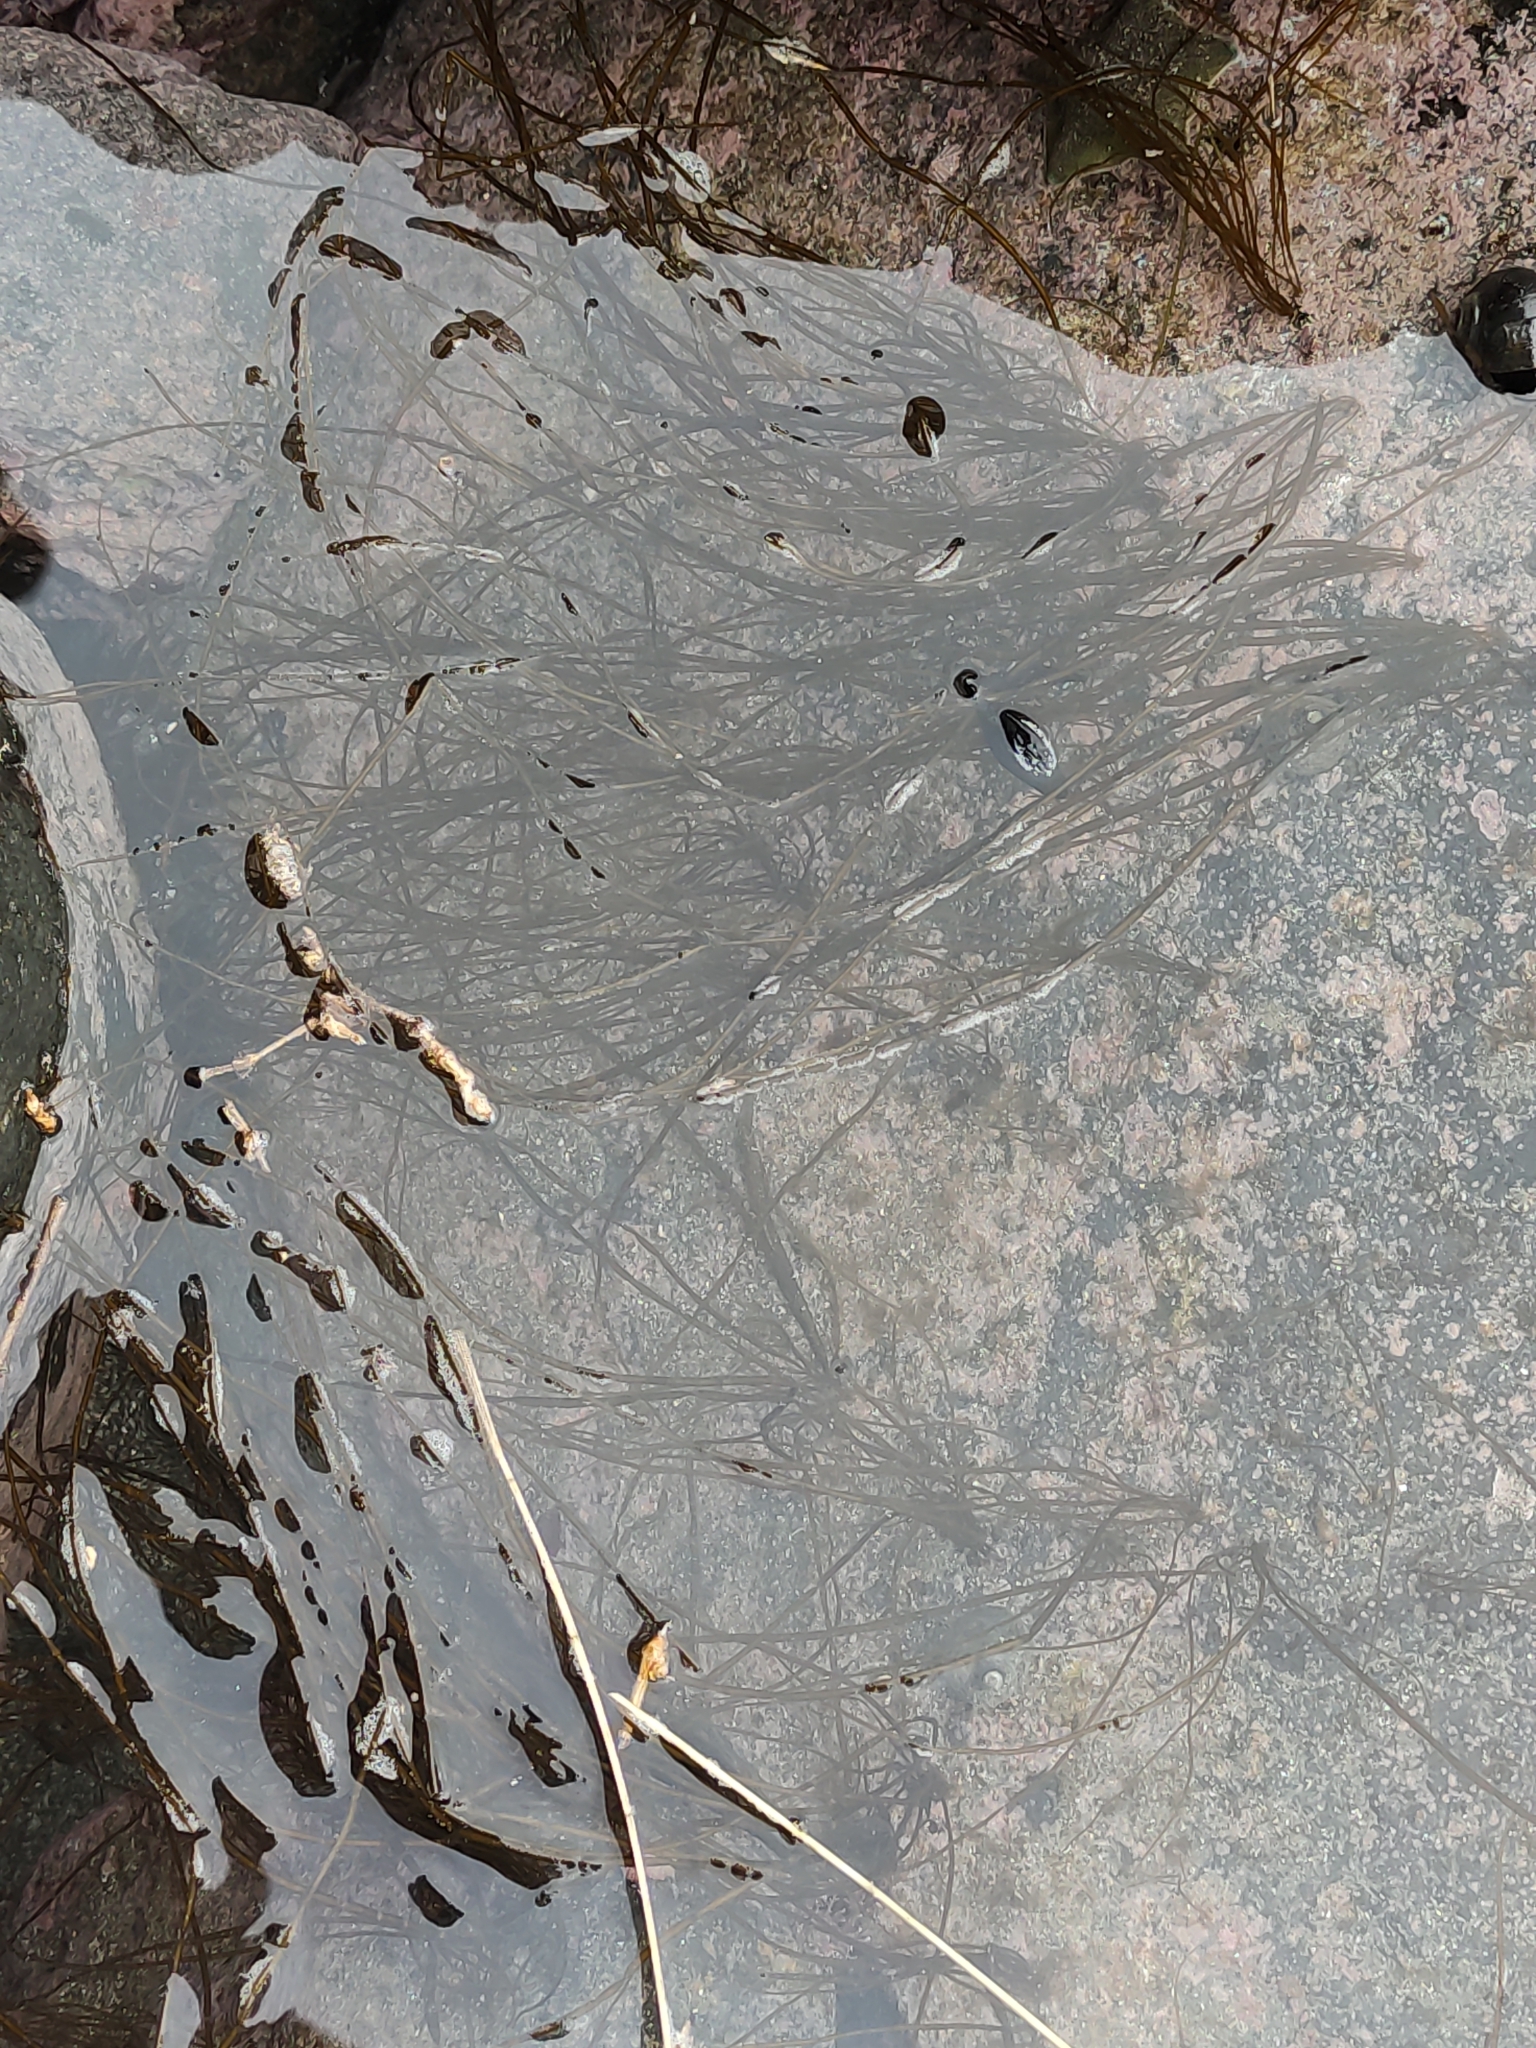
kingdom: Chromista
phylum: Ochrophyta
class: Phaeophyceae
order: Scytosiphonales
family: Scytosiphonaceae
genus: Scytosiphon
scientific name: Scytosiphon lomentaria
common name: Beanweed
